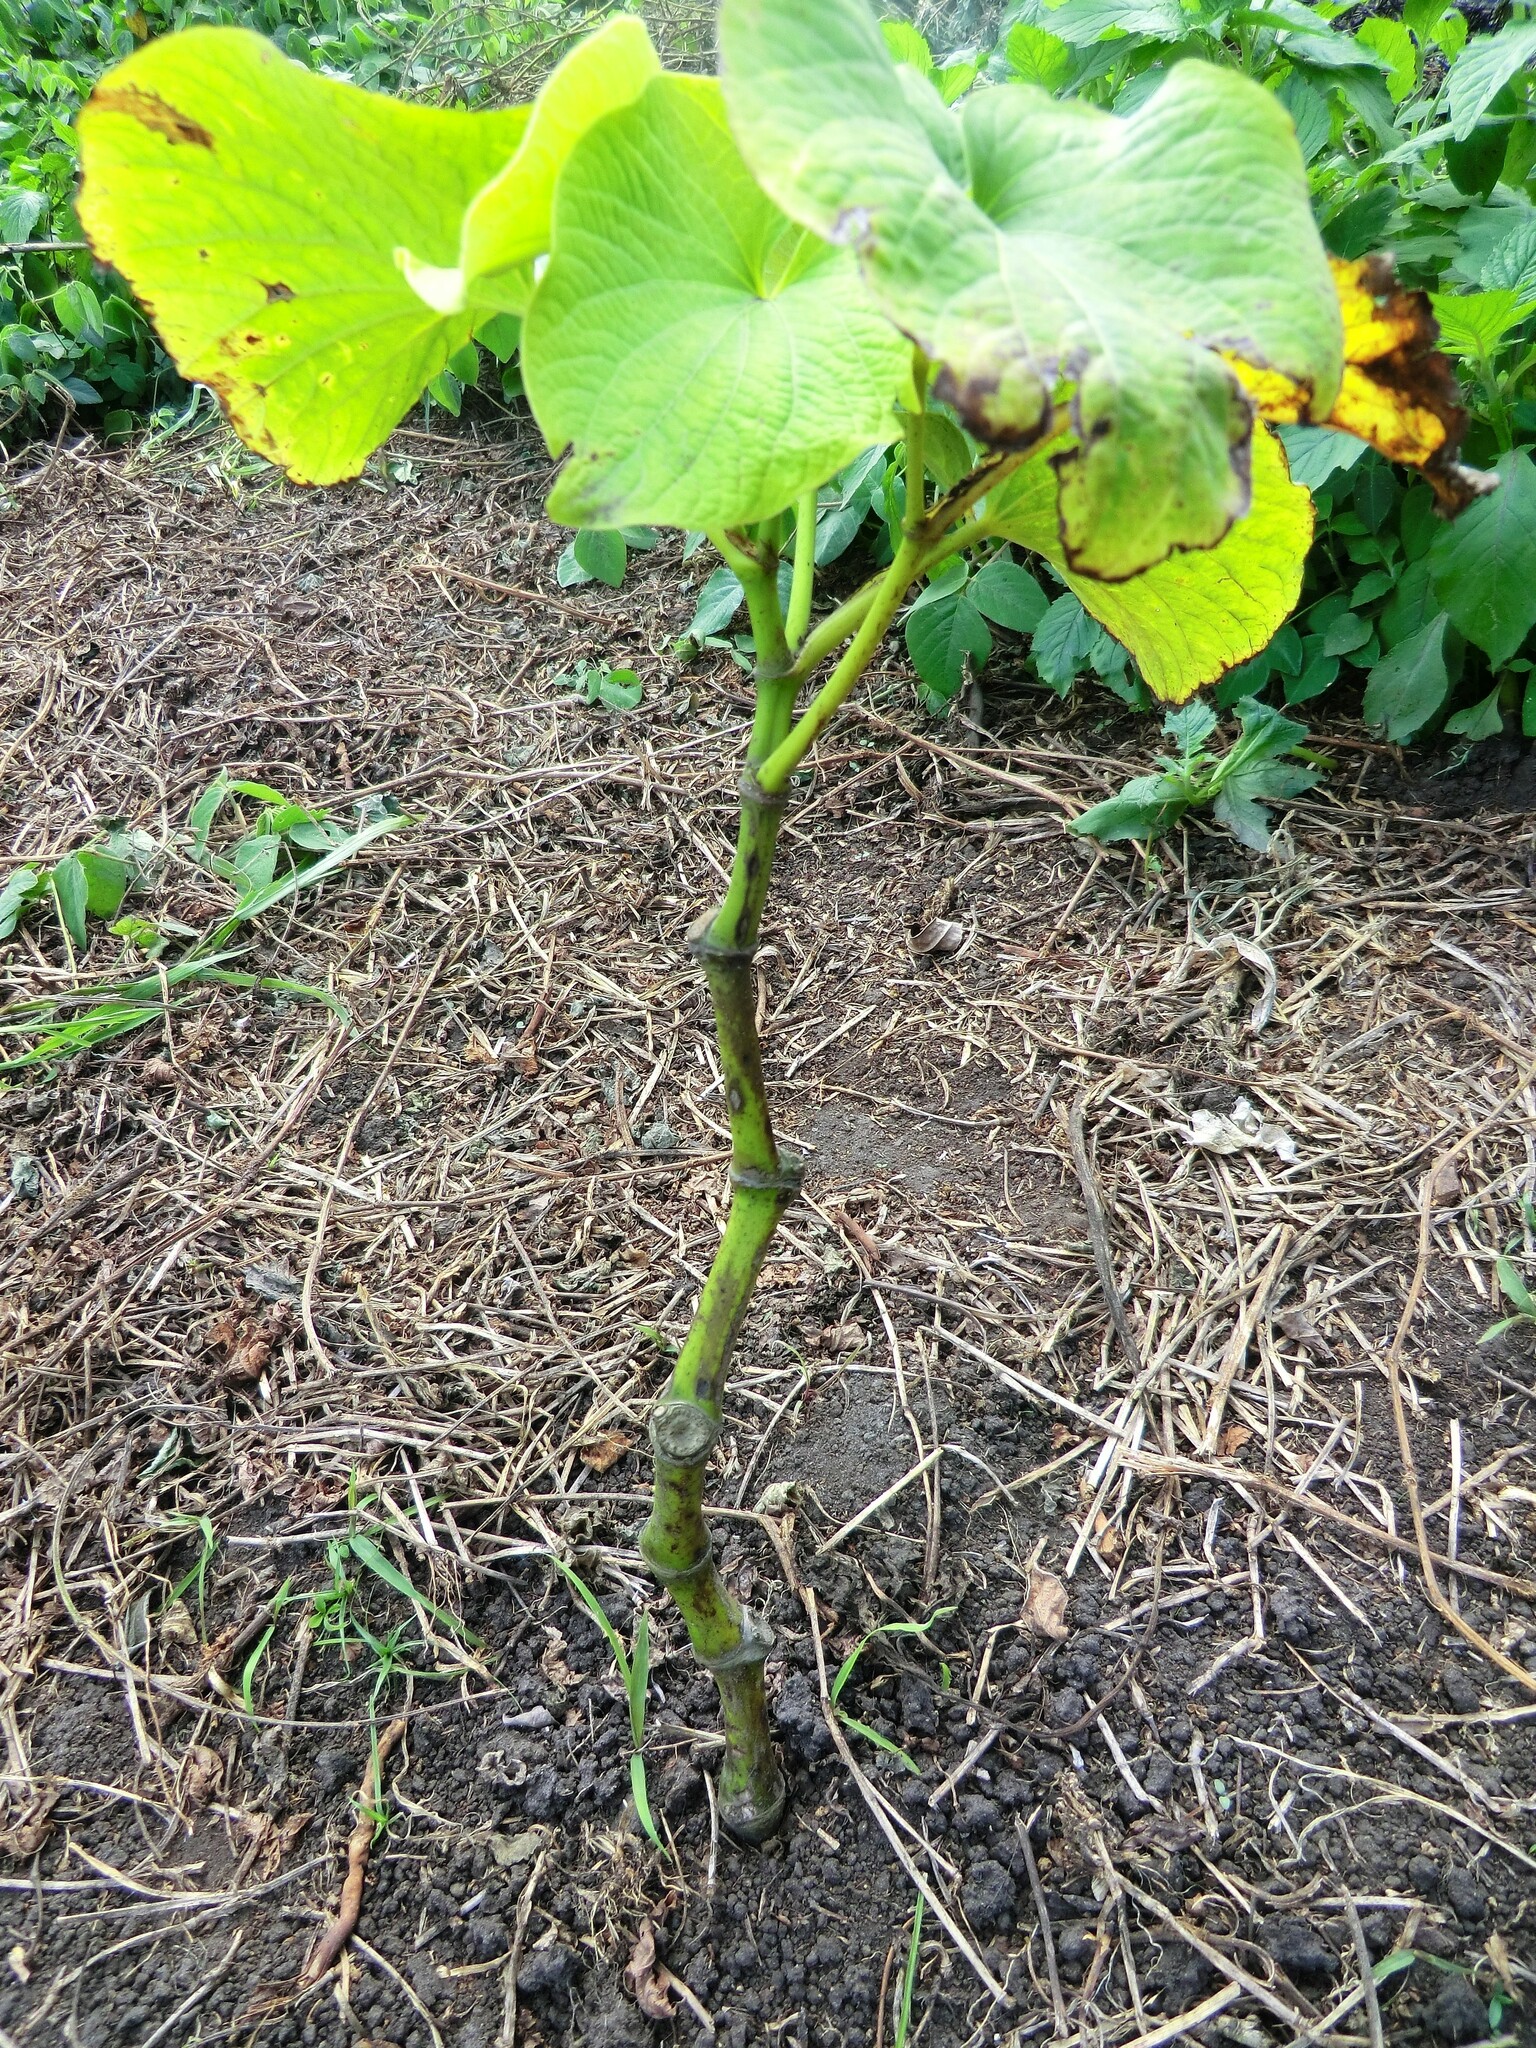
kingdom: Plantae
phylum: Tracheophyta
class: Magnoliopsida
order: Piperales
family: Piperaceae
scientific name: Piperaceae
